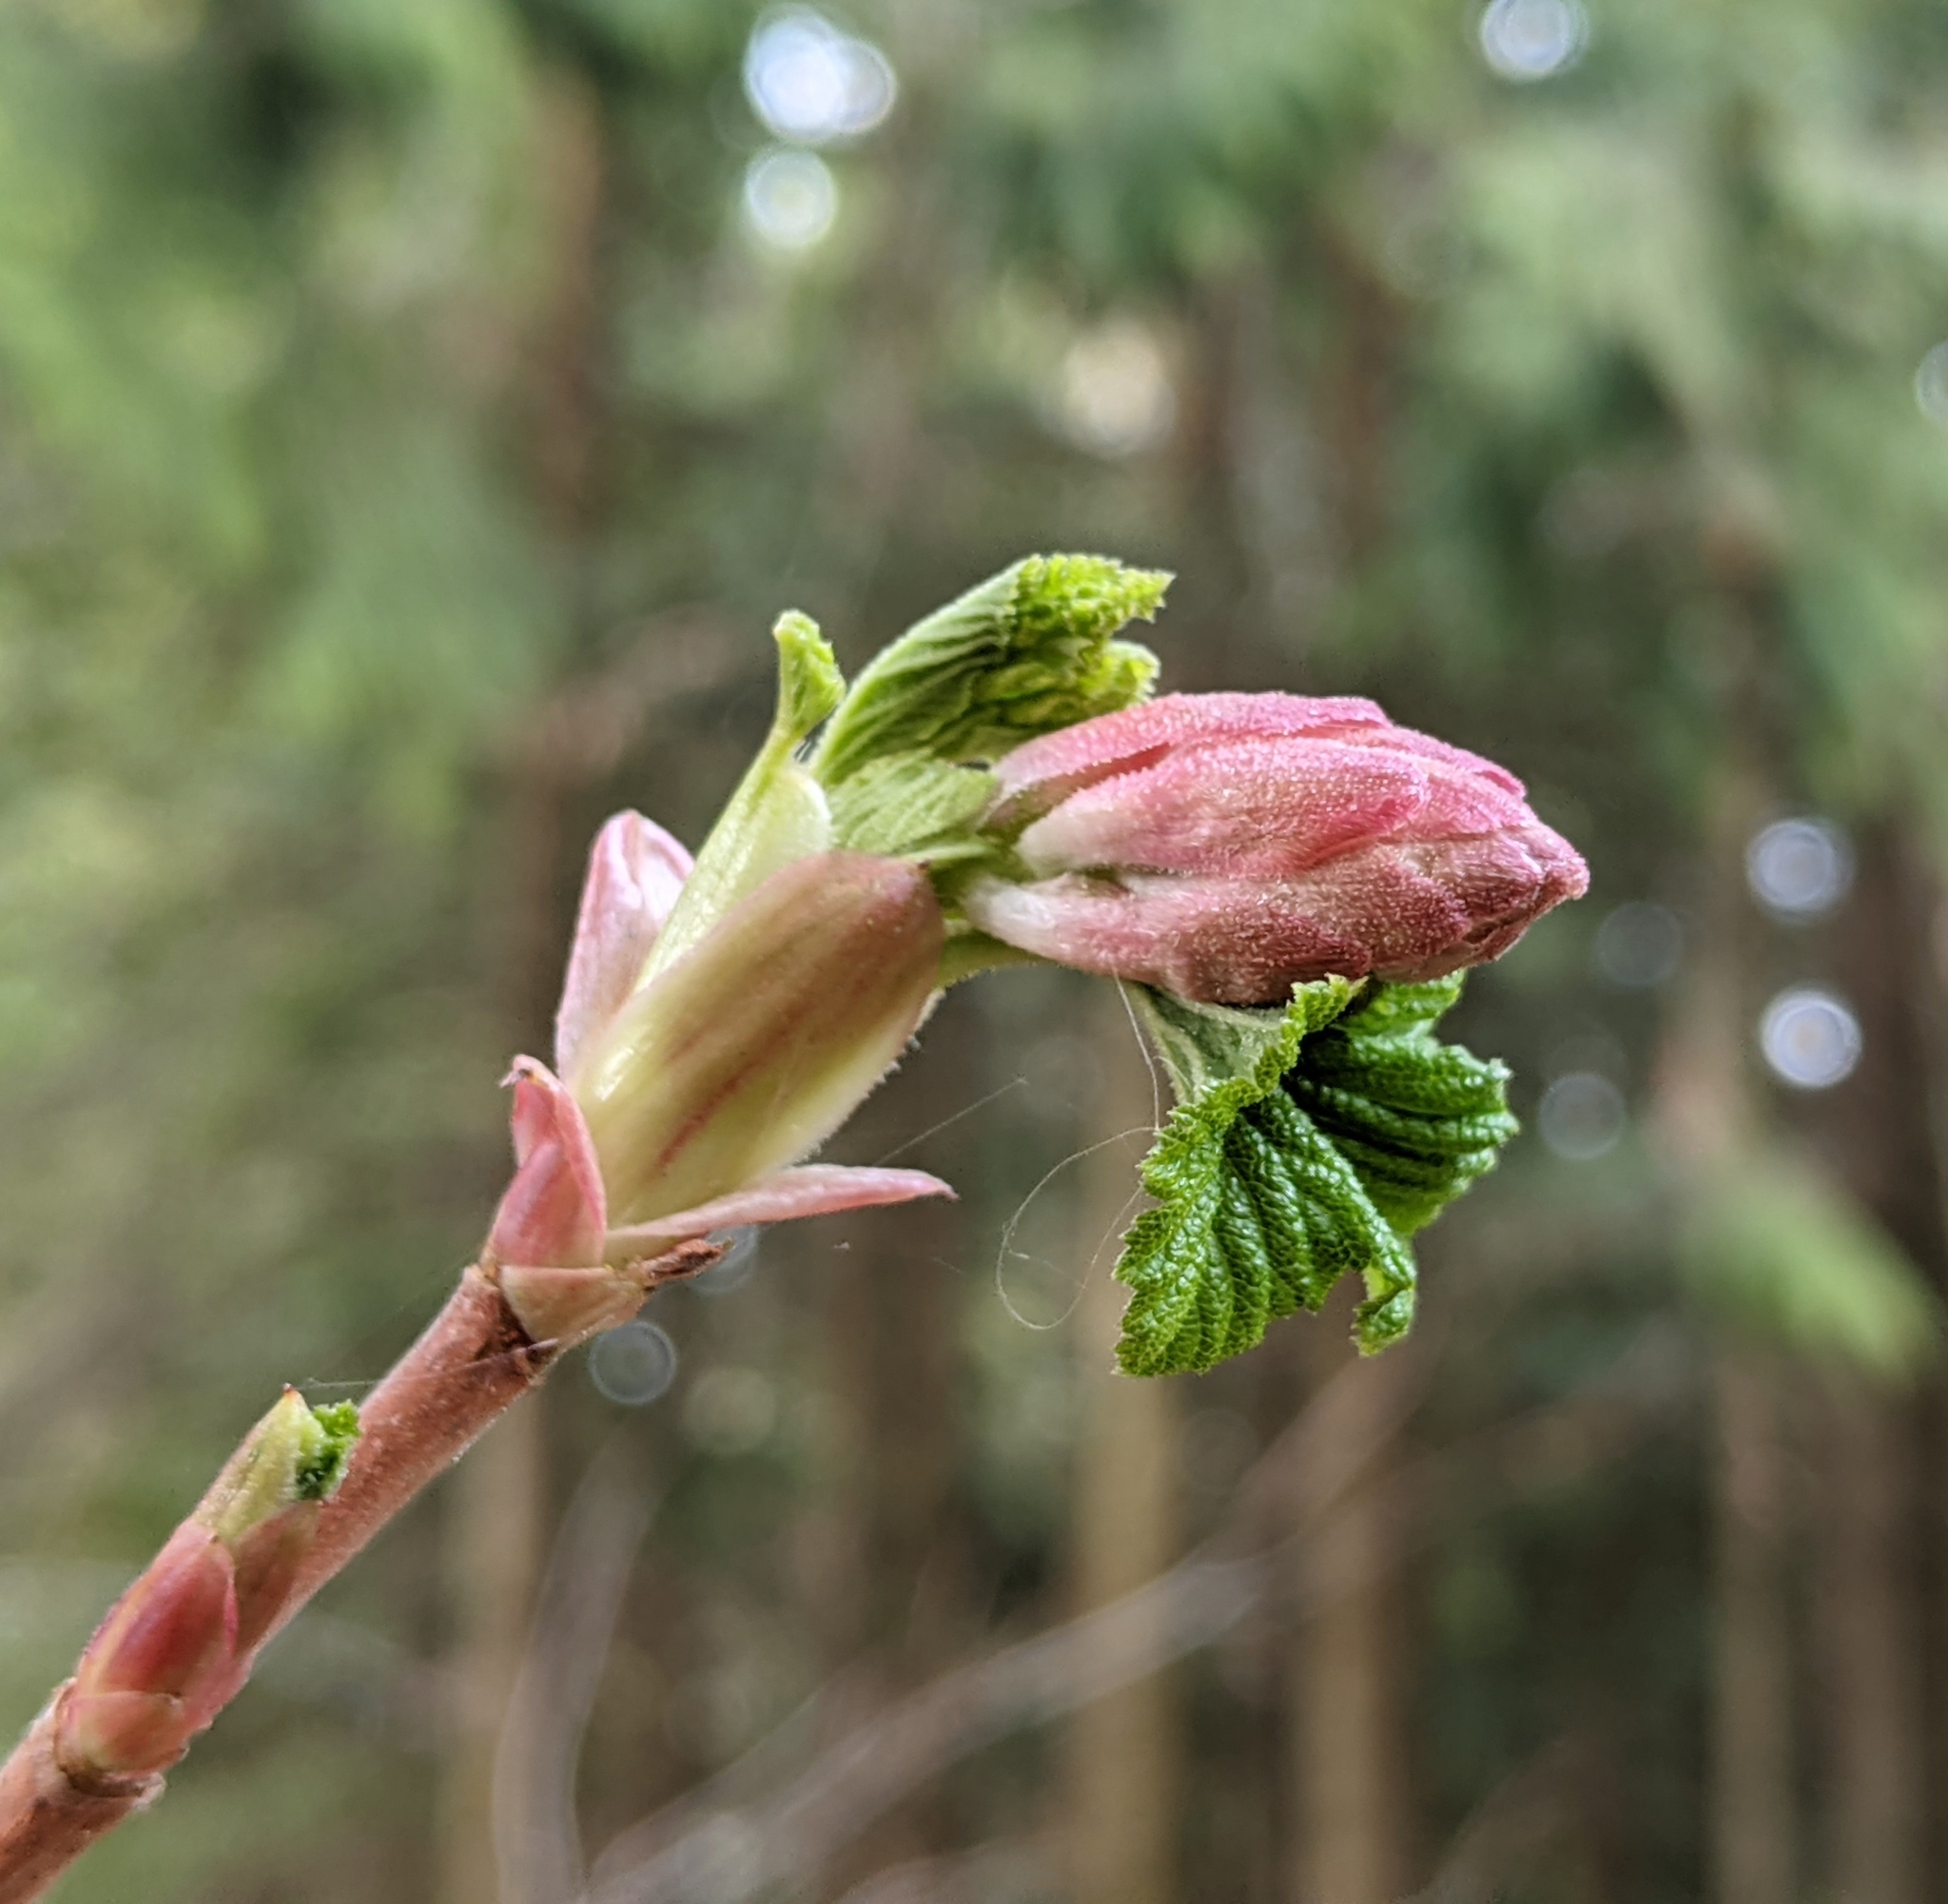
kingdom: Plantae
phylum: Tracheophyta
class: Magnoliopsida
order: Saxifragales
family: Grossulariaceae
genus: Ribes
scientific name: Ribes sanguineum
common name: Flowering currant
